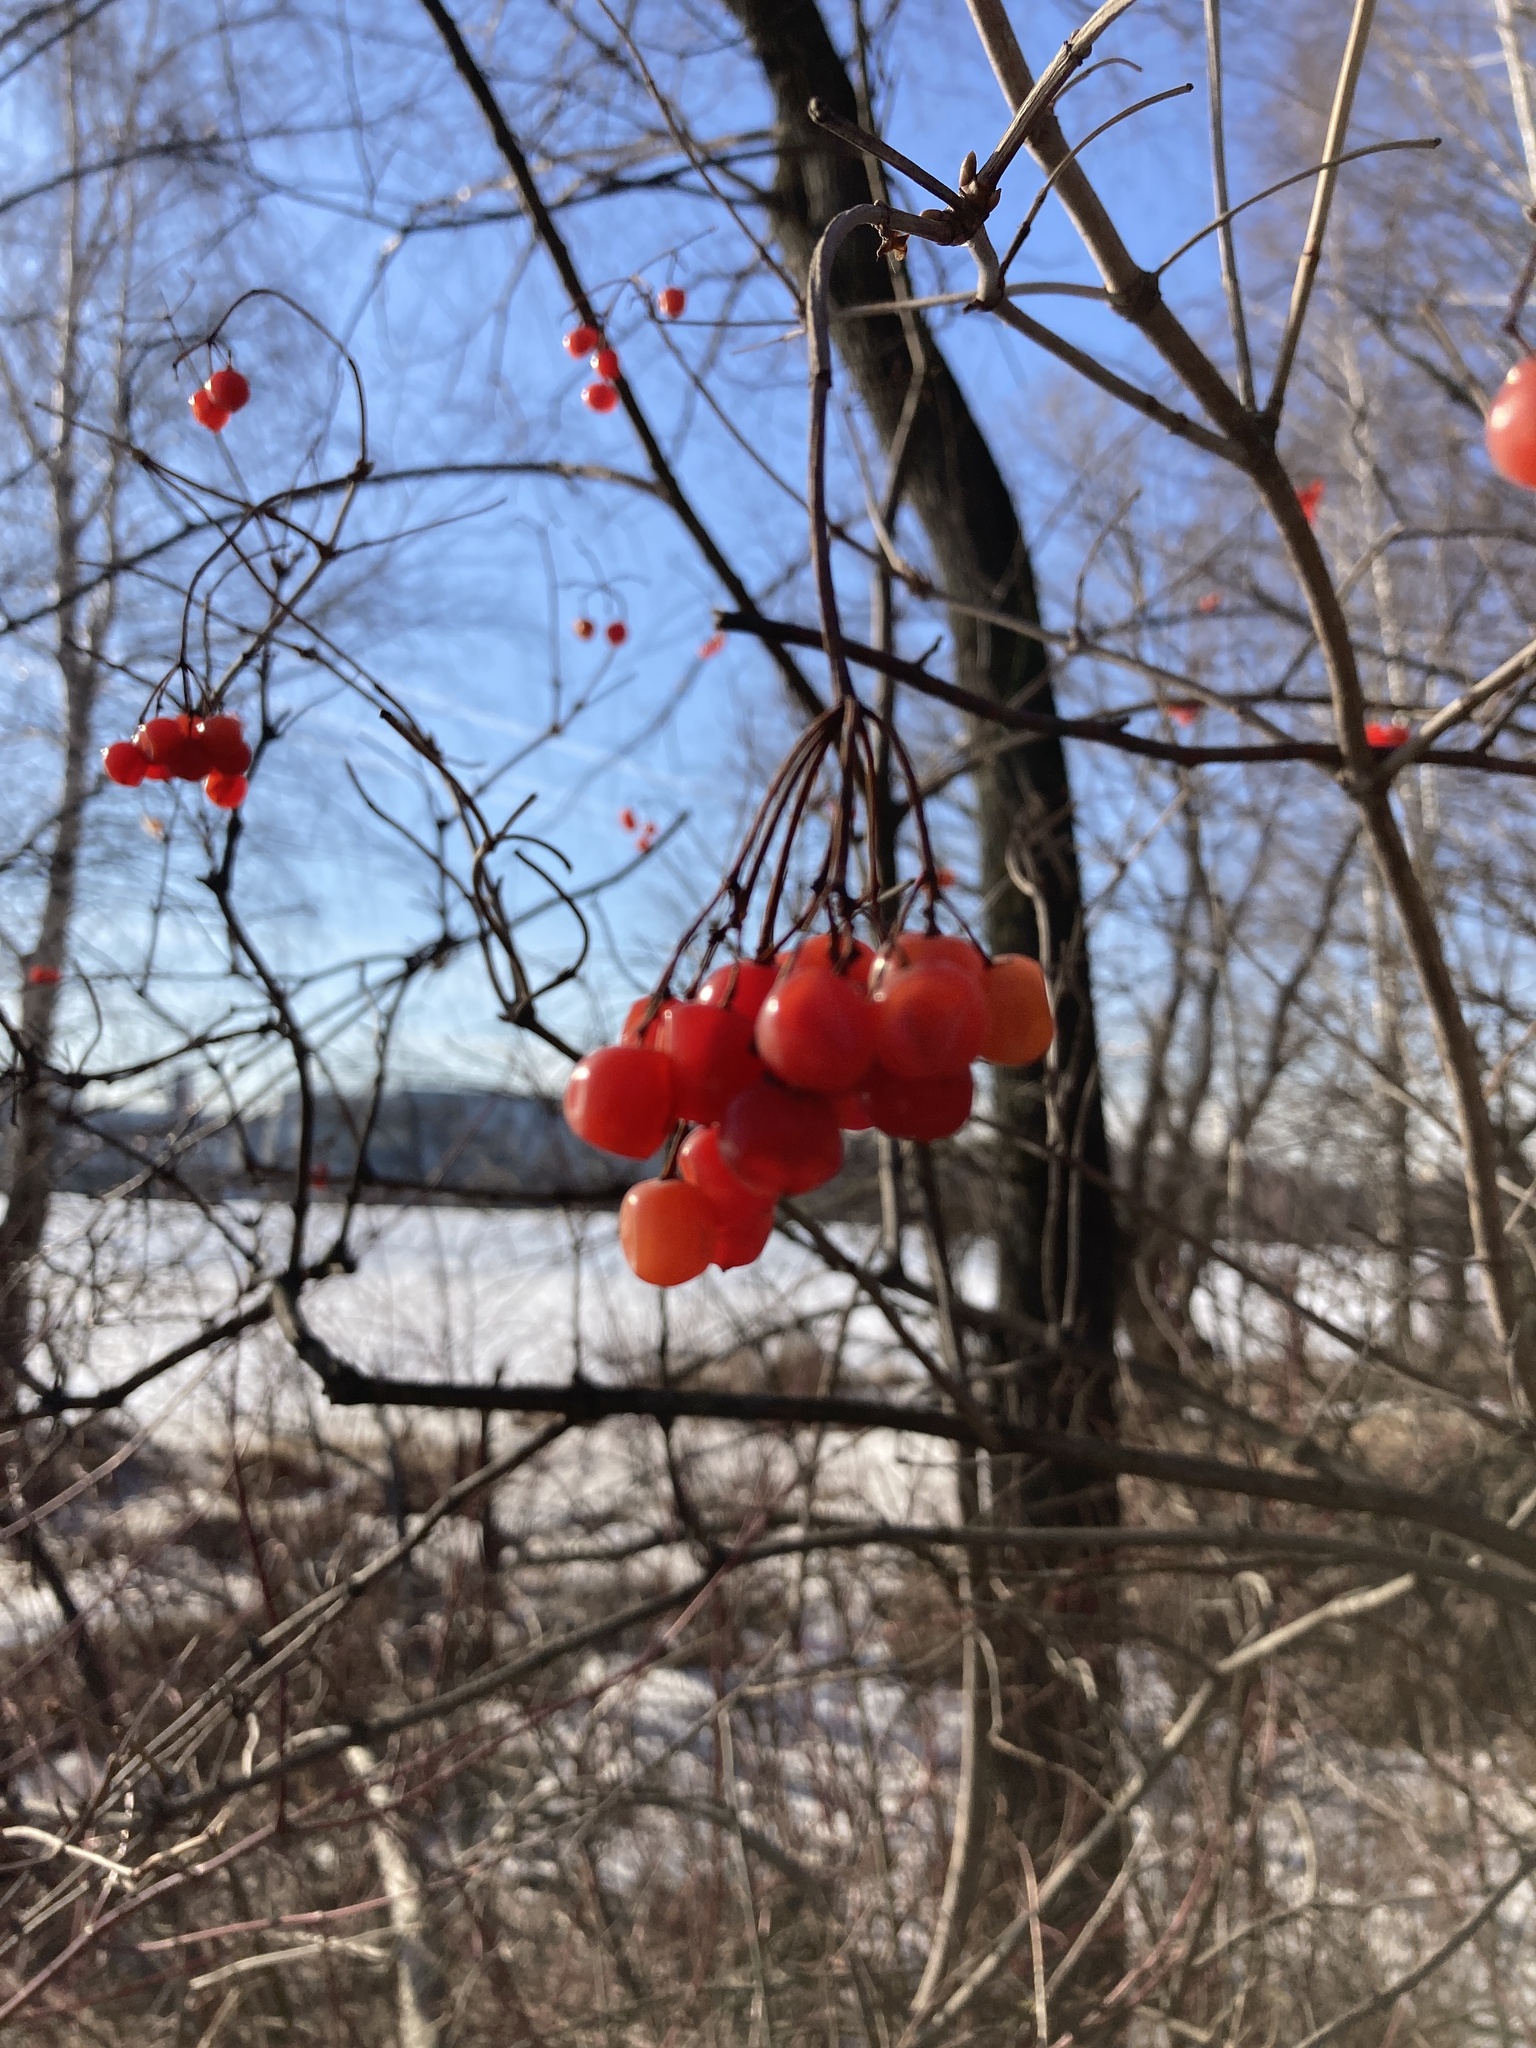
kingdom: Plantae
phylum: Tracheophyta
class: Magnoliopsida
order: Dipsacales
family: Viburnaceae
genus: Viburnum
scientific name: Viburnum opulus
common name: Guelder-rose
